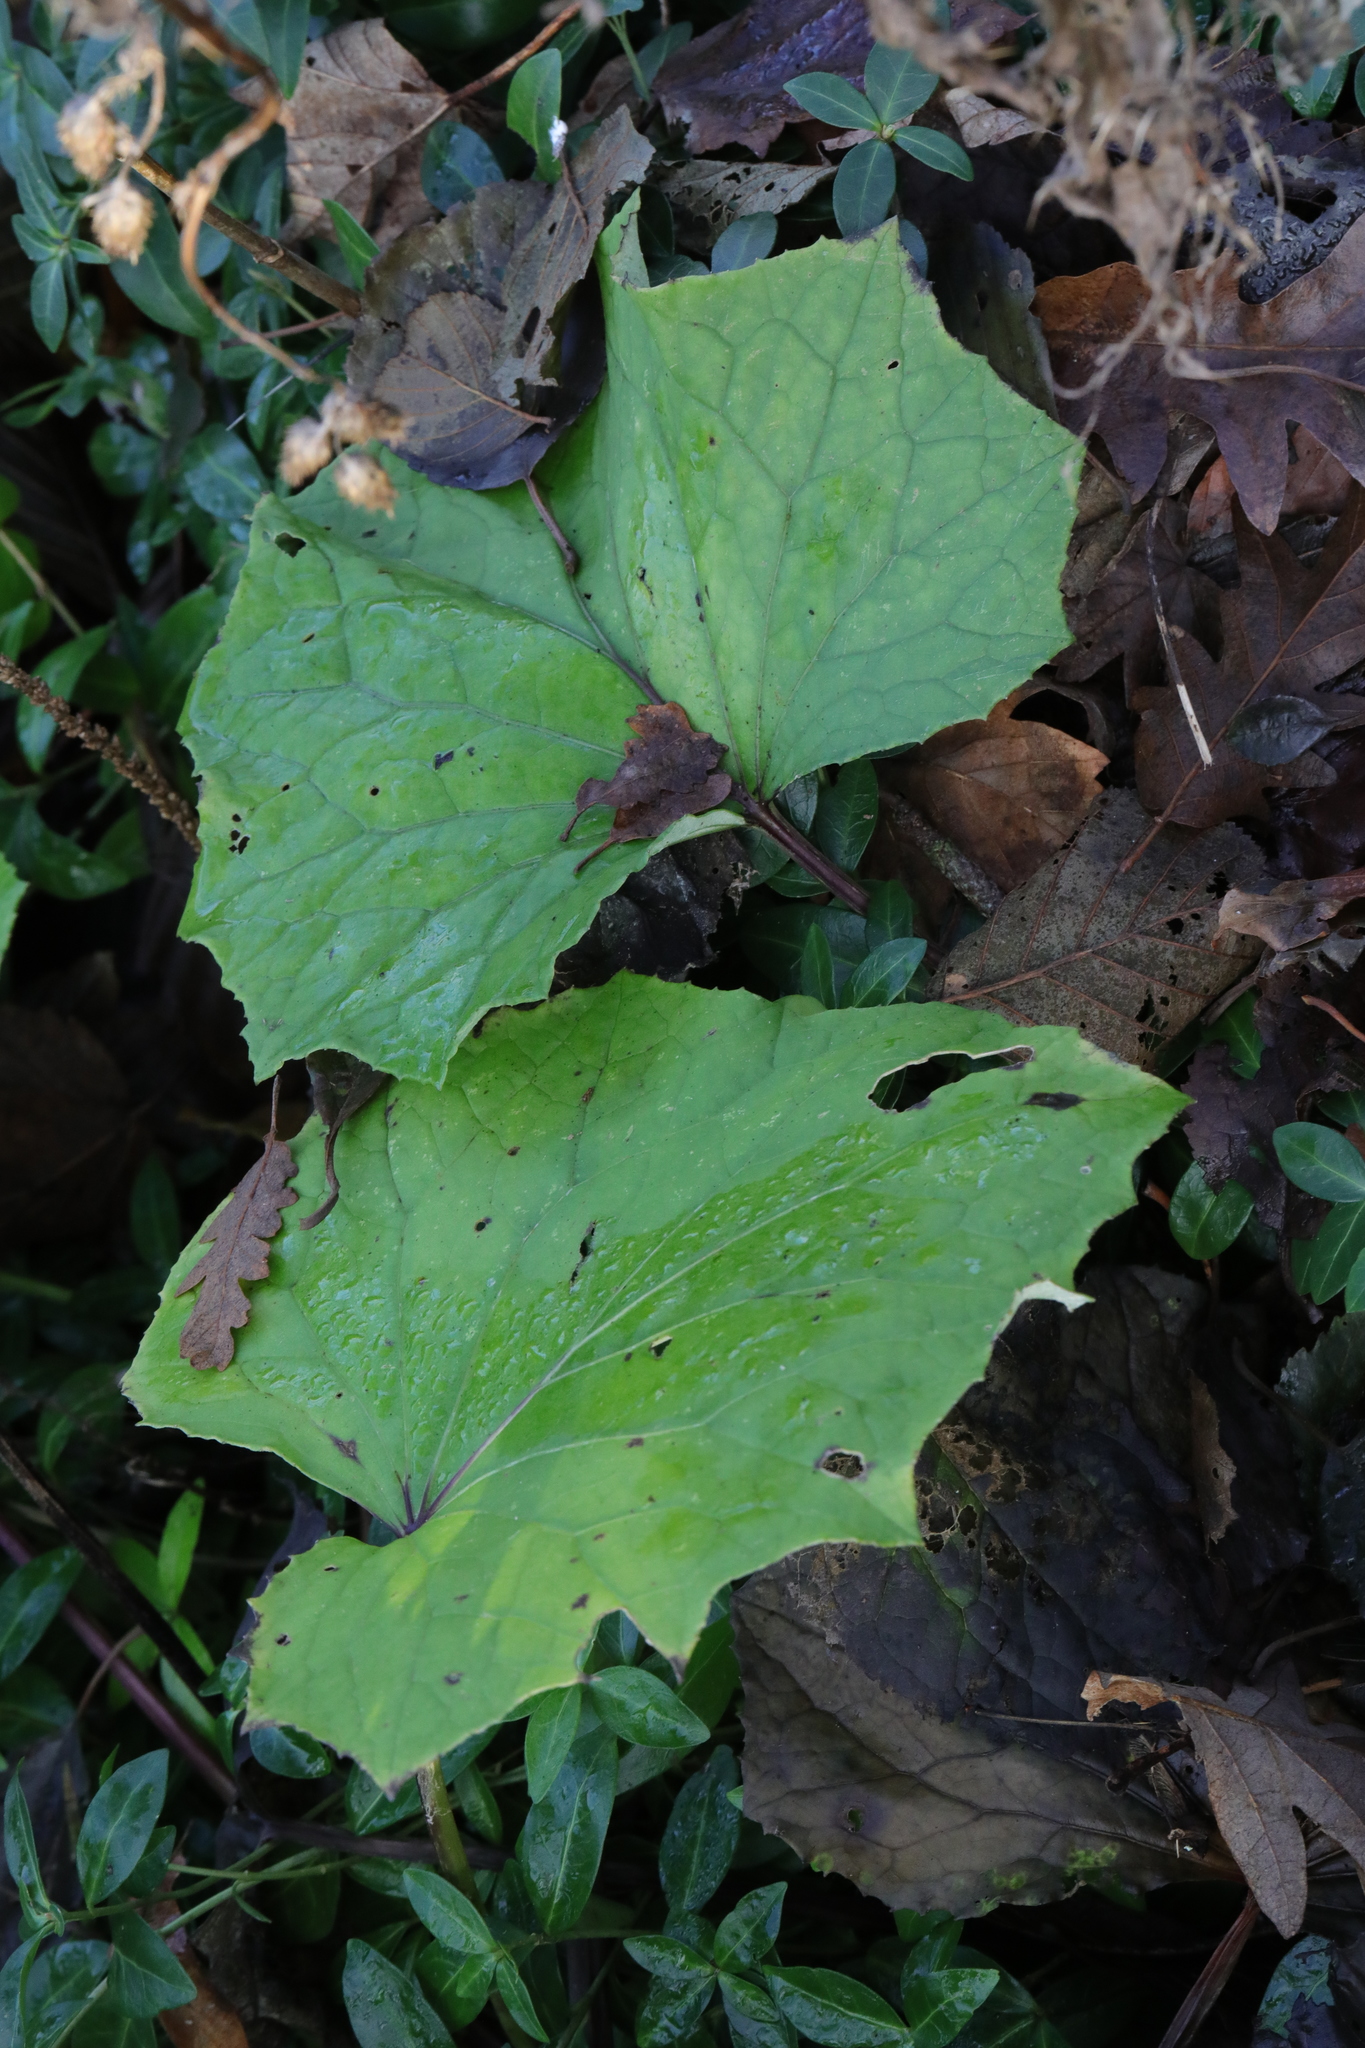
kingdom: Plantae
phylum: Tracheophyta
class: Magnoliopsida
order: Asterales
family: Asteraceae
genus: Tussilago
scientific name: Tussilago farfara
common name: Coltsfoot
